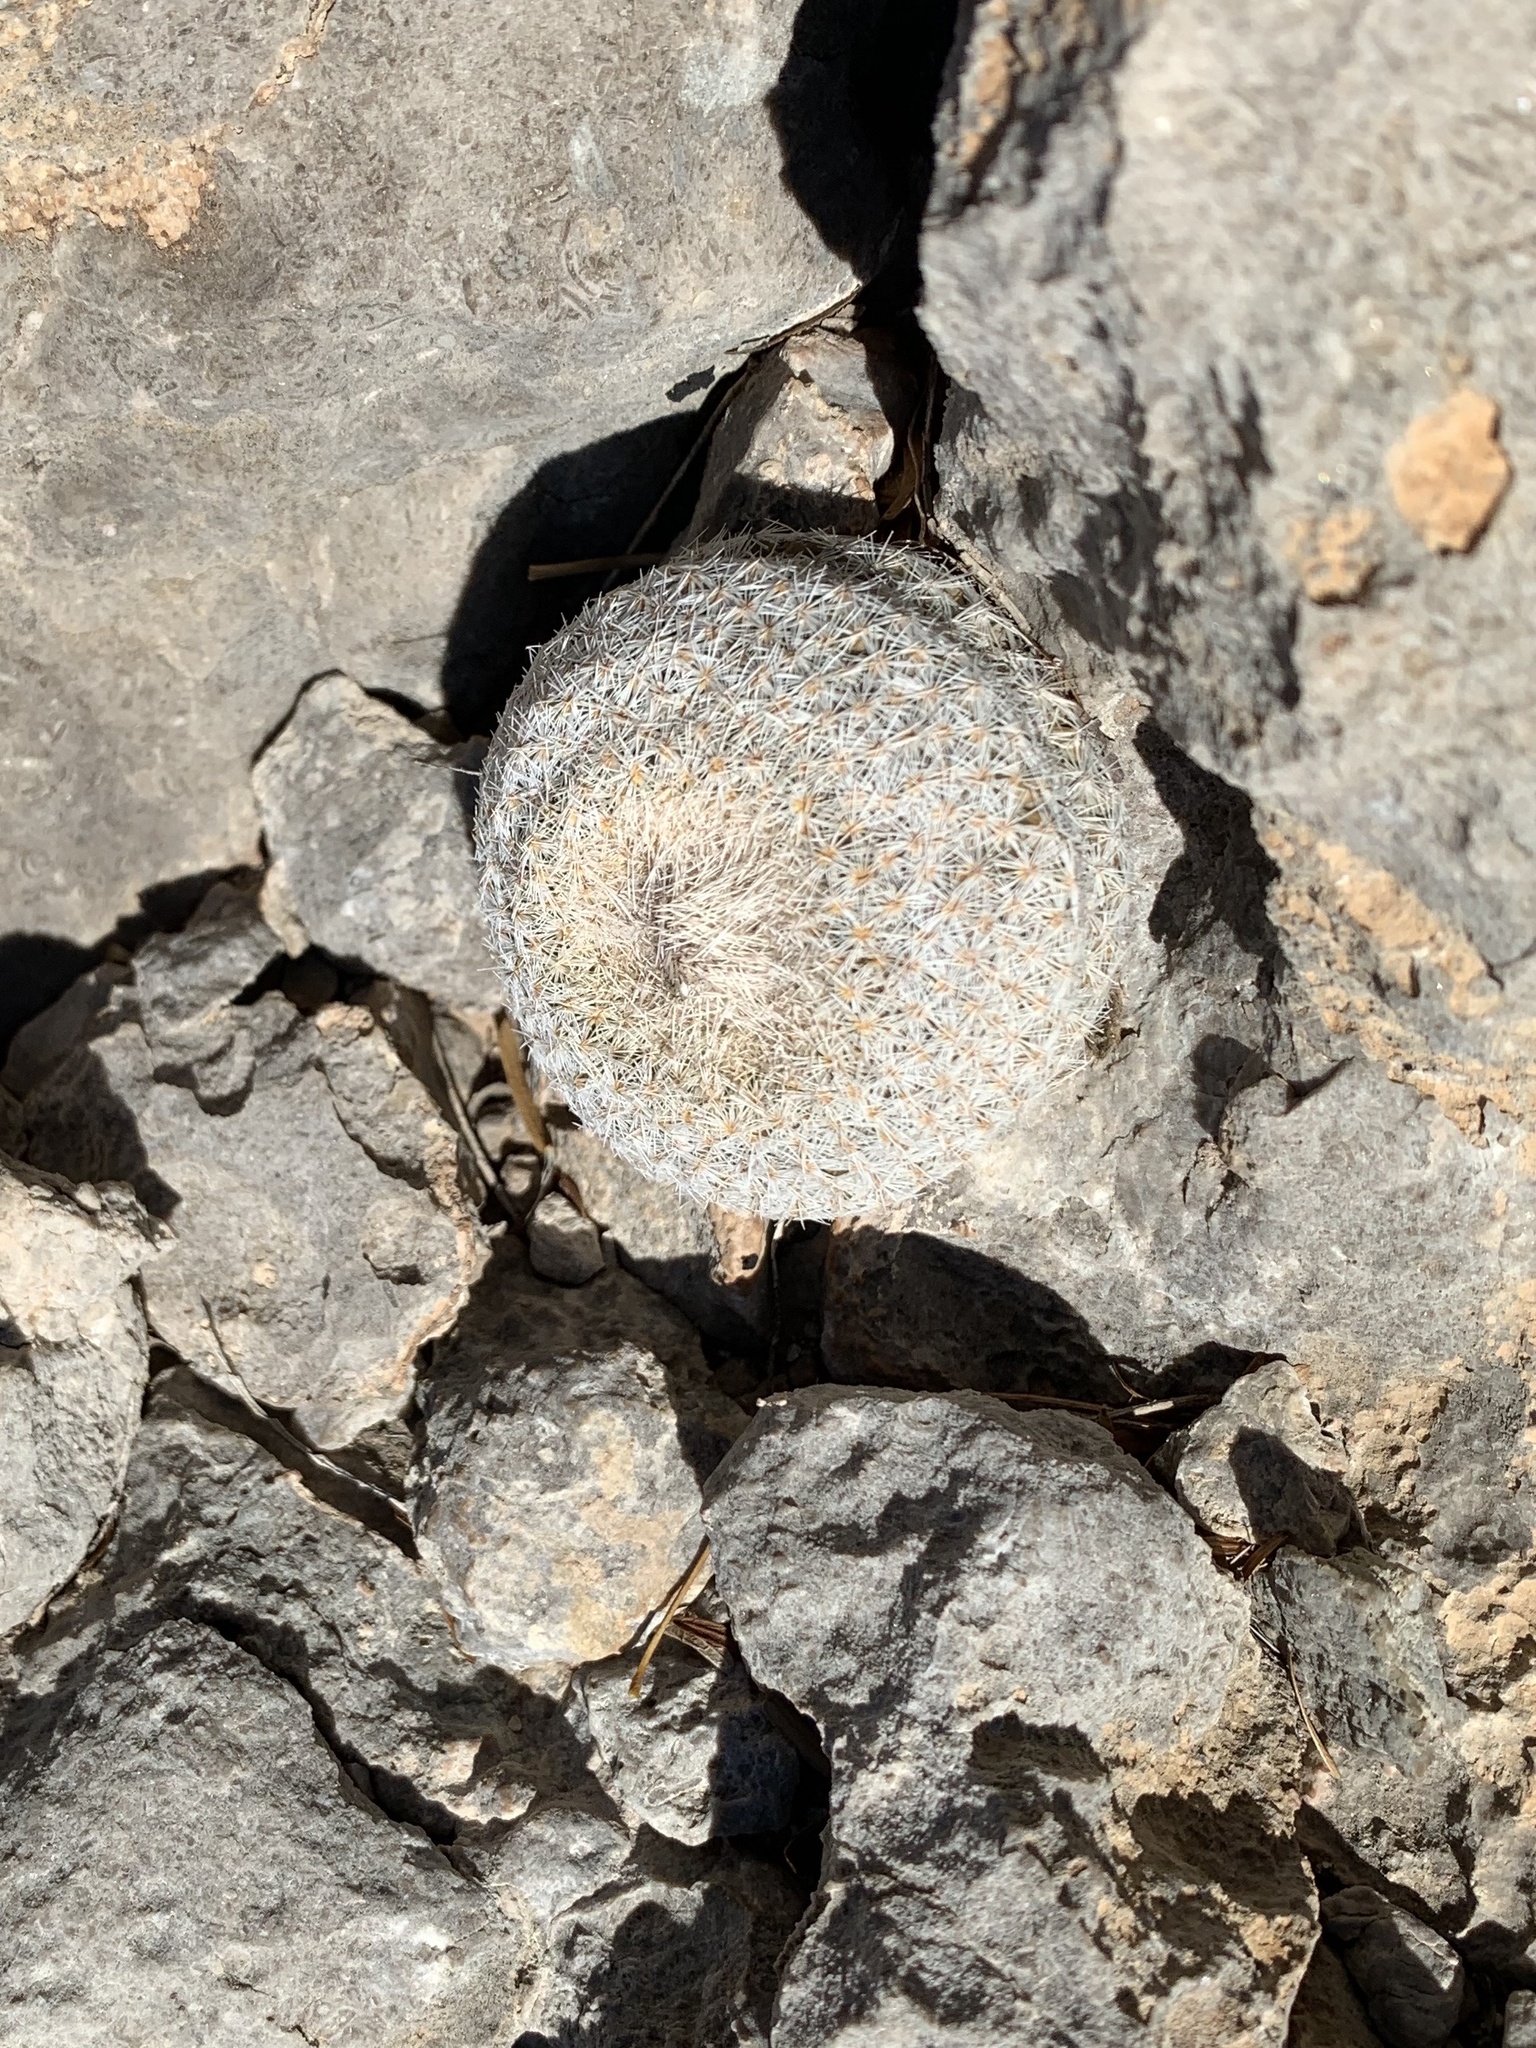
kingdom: Plantae
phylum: Tracheophyta
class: Magnoliopsida
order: Caryophyllales
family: Cactaceae
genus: Epithelantha
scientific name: Epithelantha micromeris
